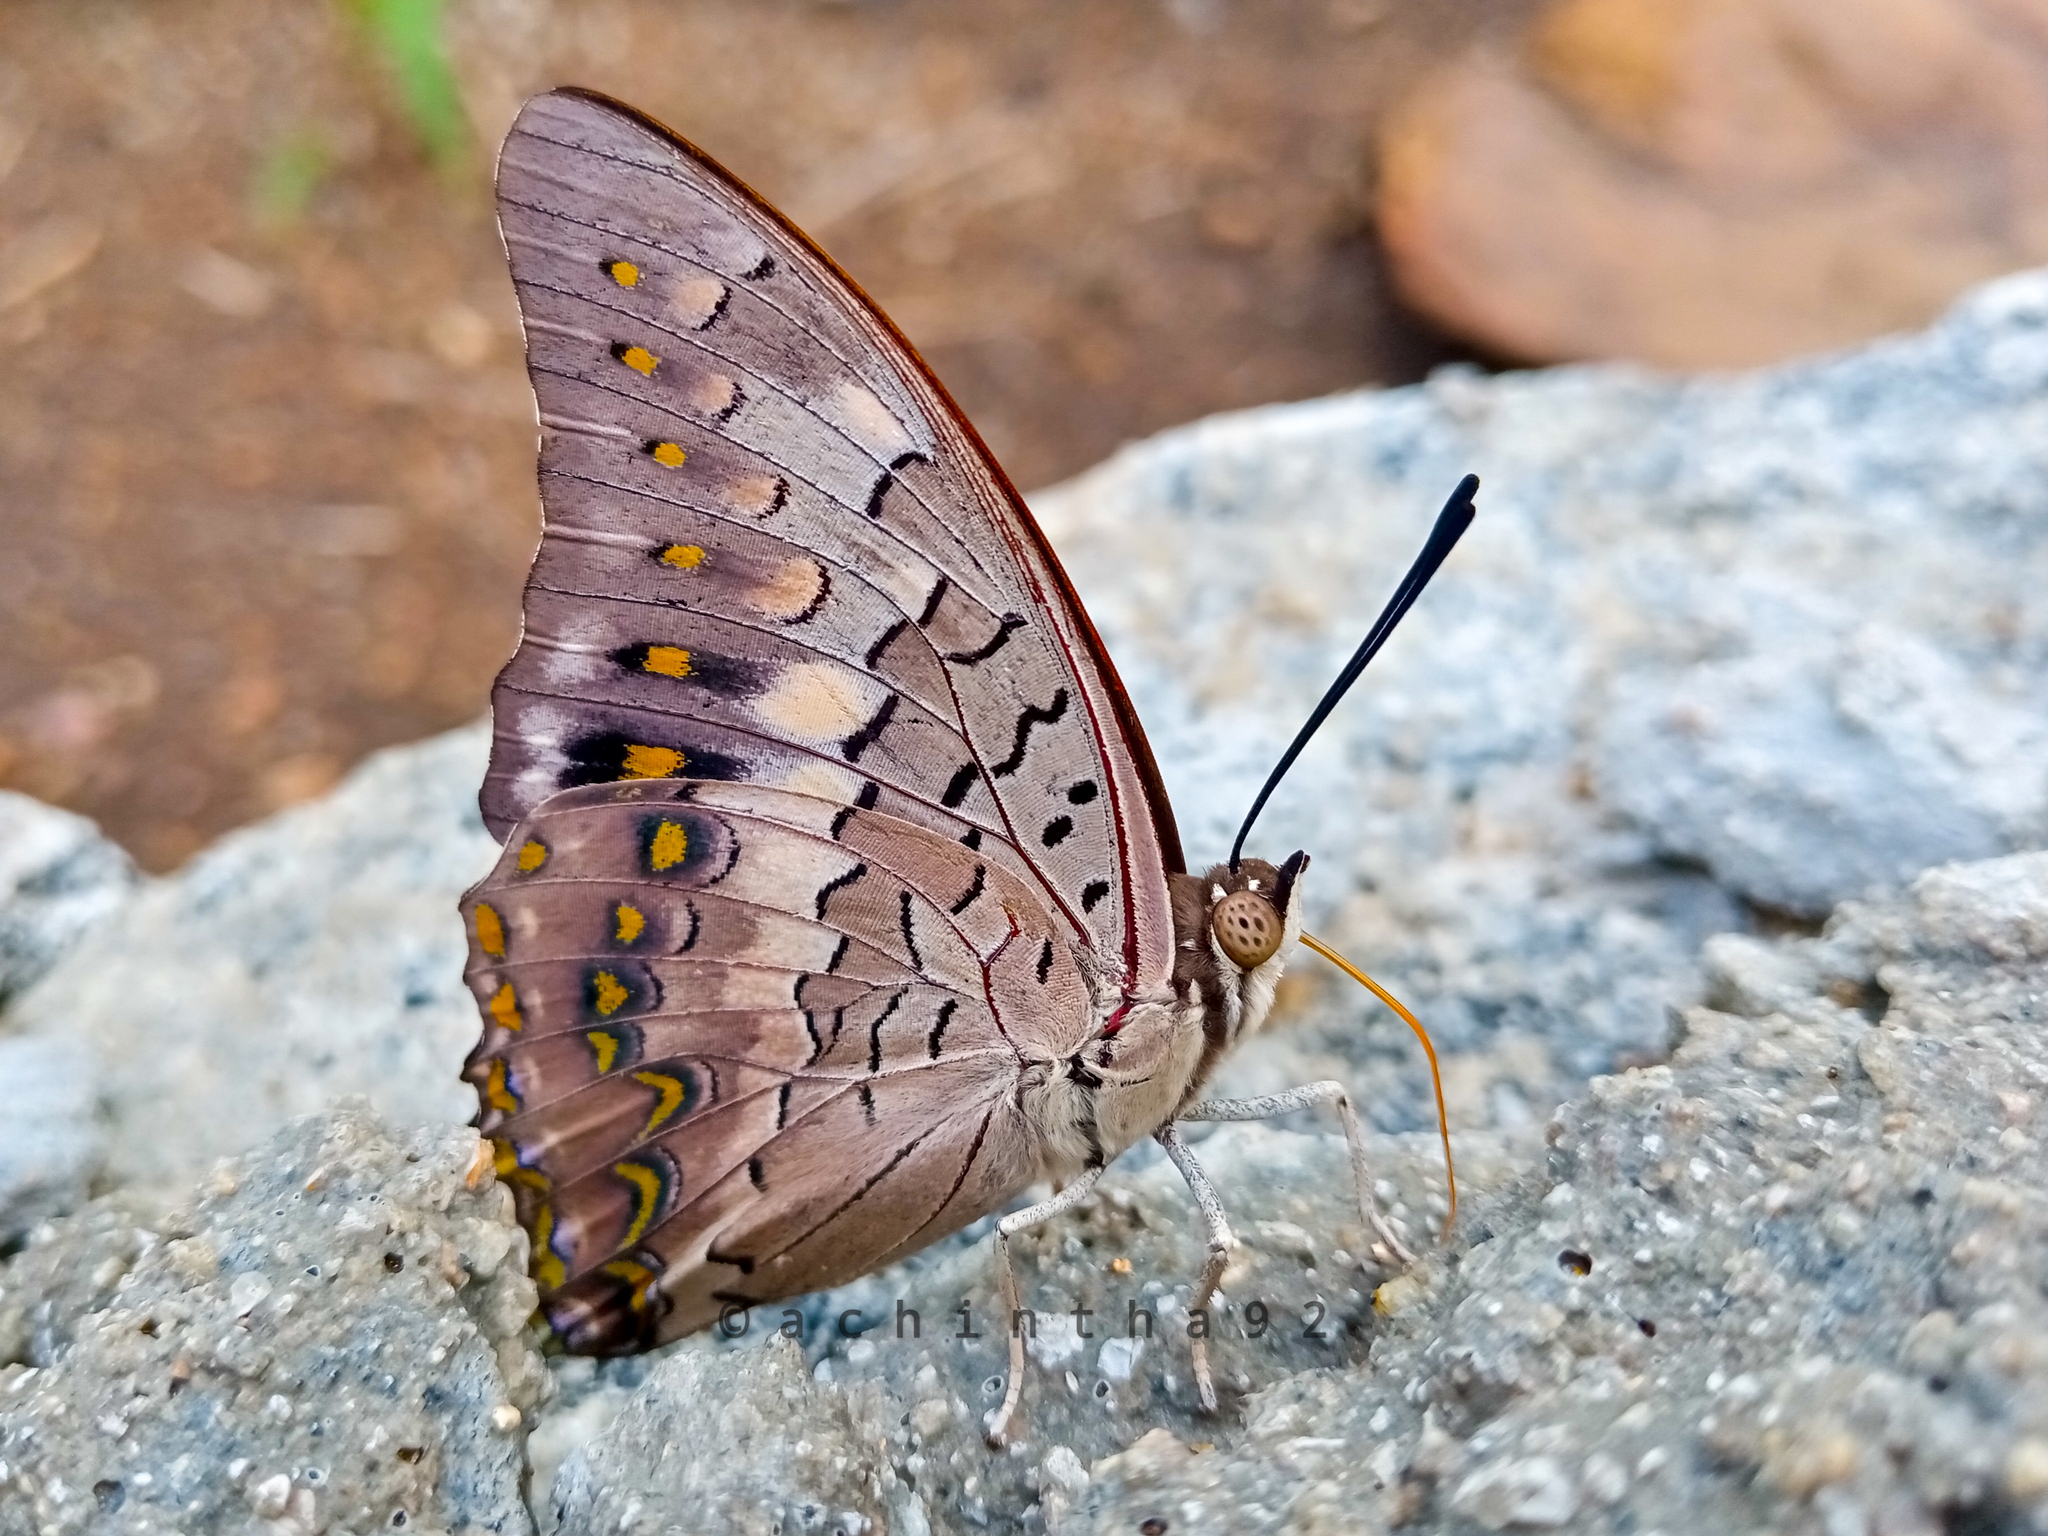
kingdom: Animalia
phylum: Arthropoda
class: Insecta
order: Lepidoptera
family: Nymphalidae
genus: Charaxes
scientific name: Charaxes solon
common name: Black rajah
